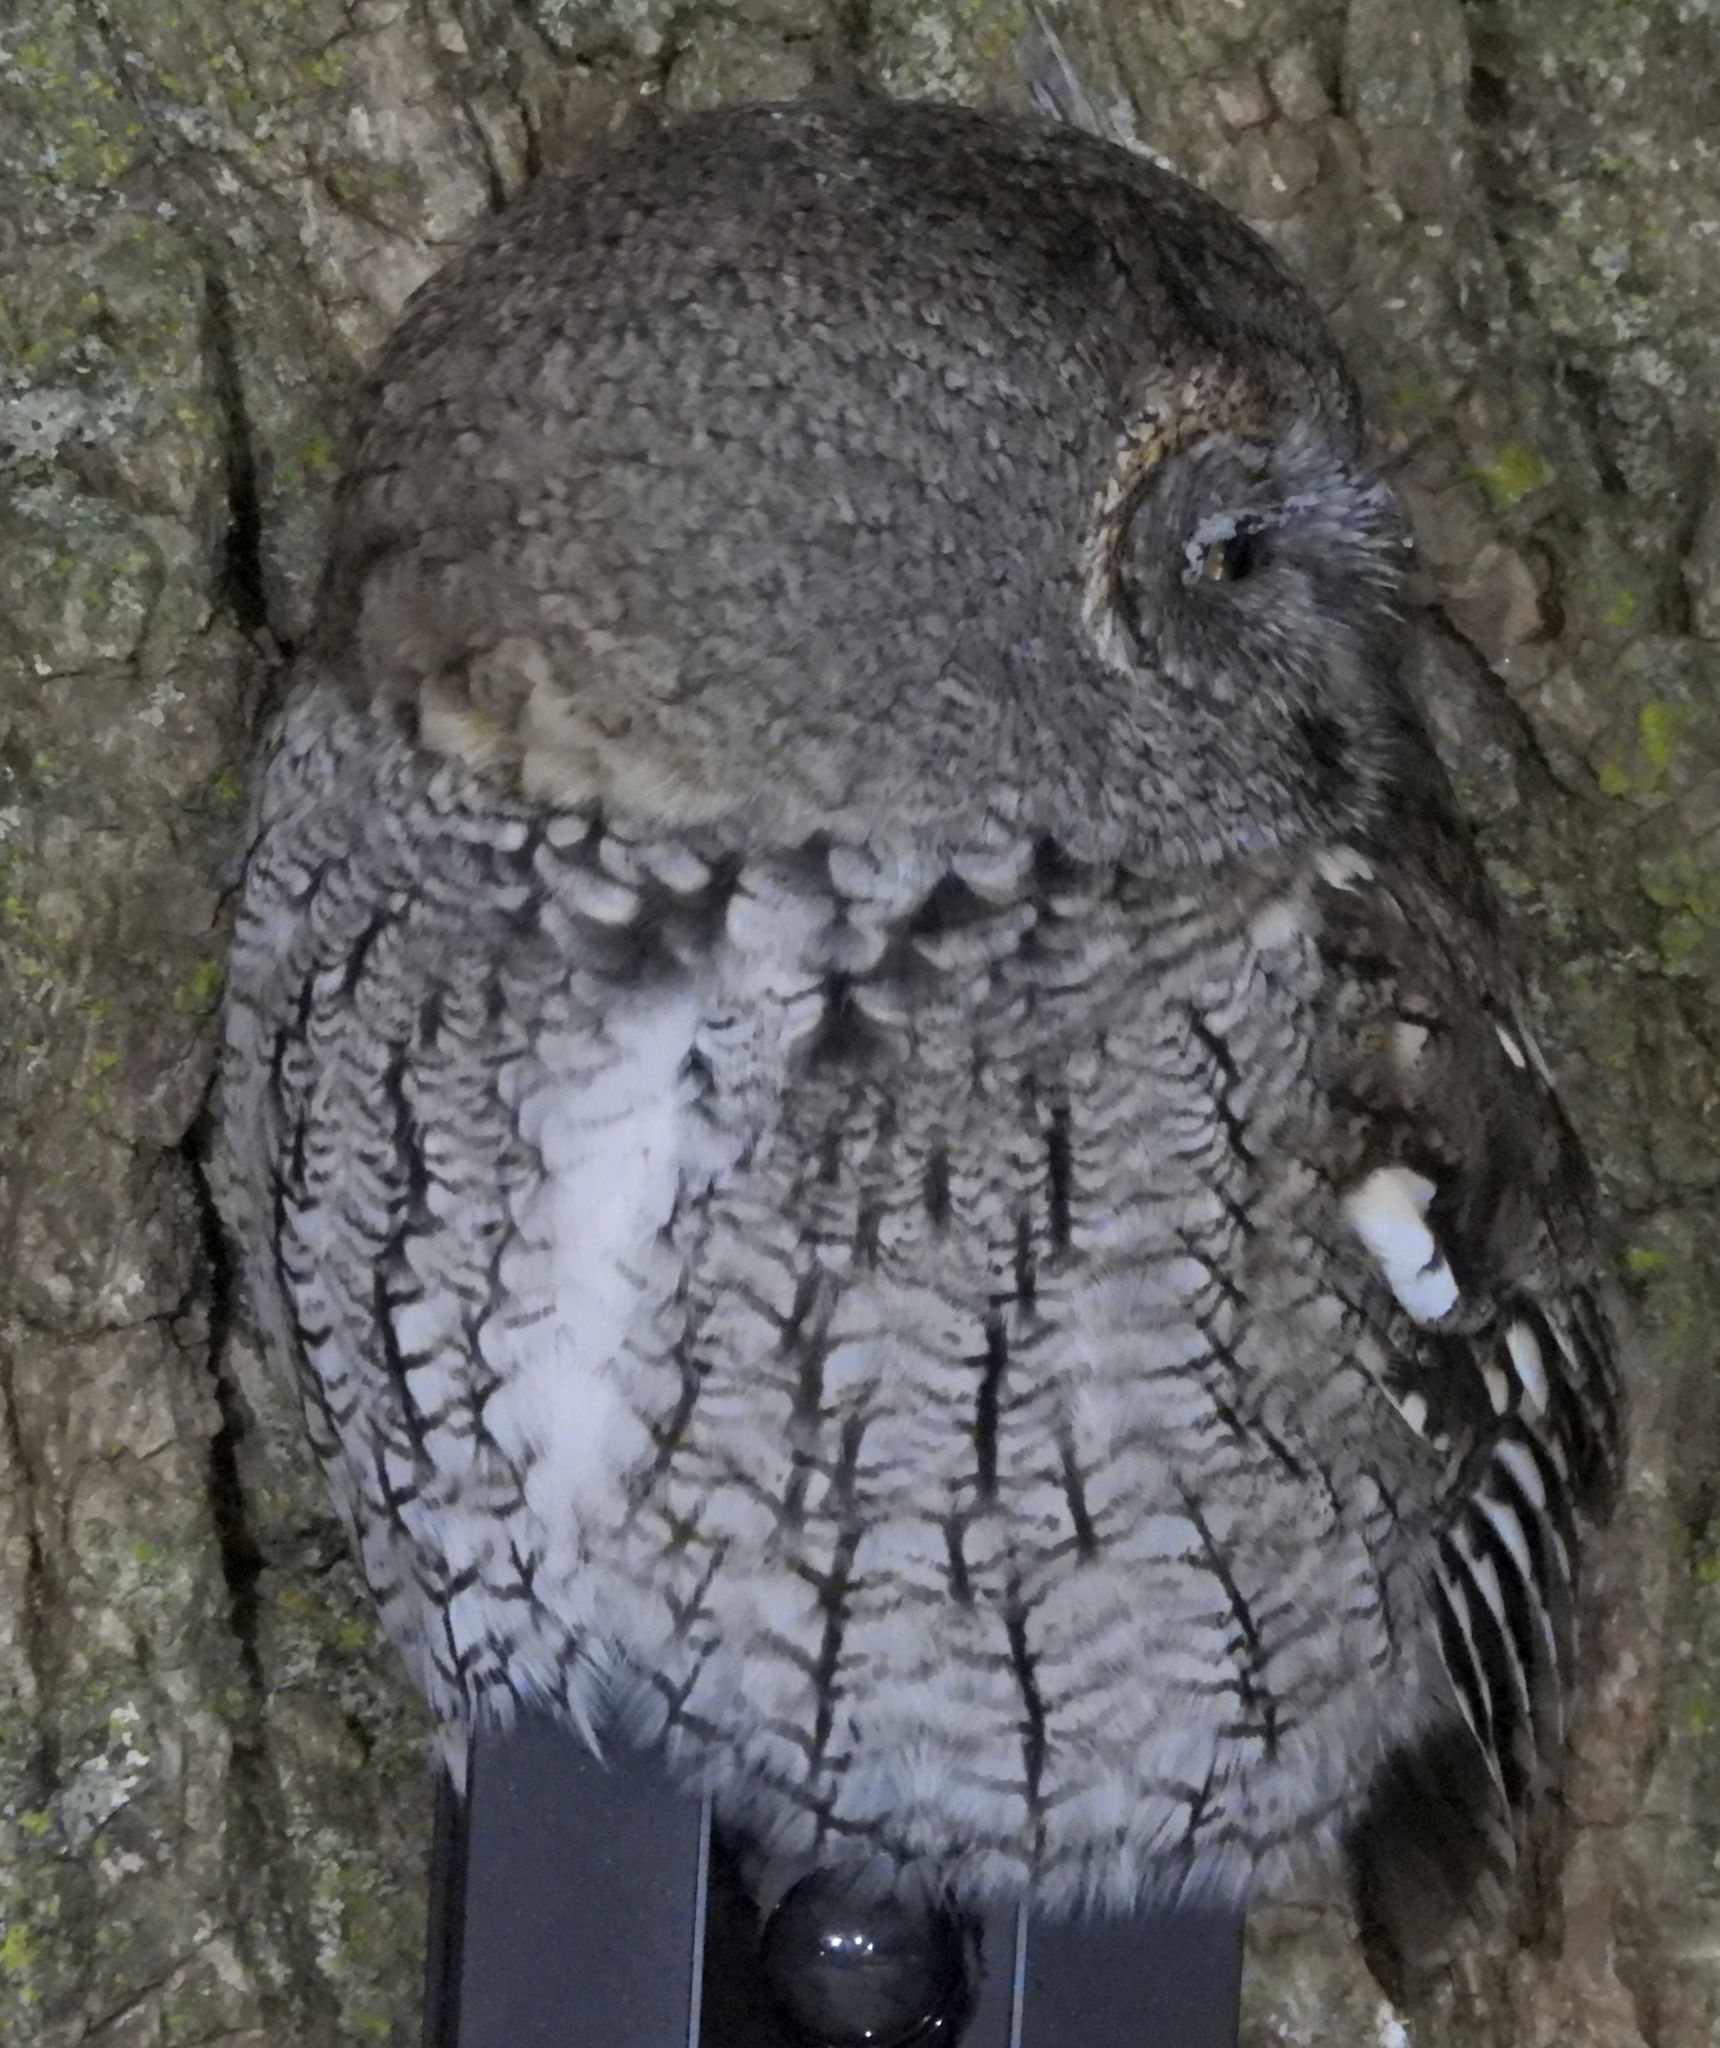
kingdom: Animalia
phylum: Chordata
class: Aves
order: Strigiformes
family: Strigidae
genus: Megascops
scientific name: Megascops asio
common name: Eastern screech-owl
